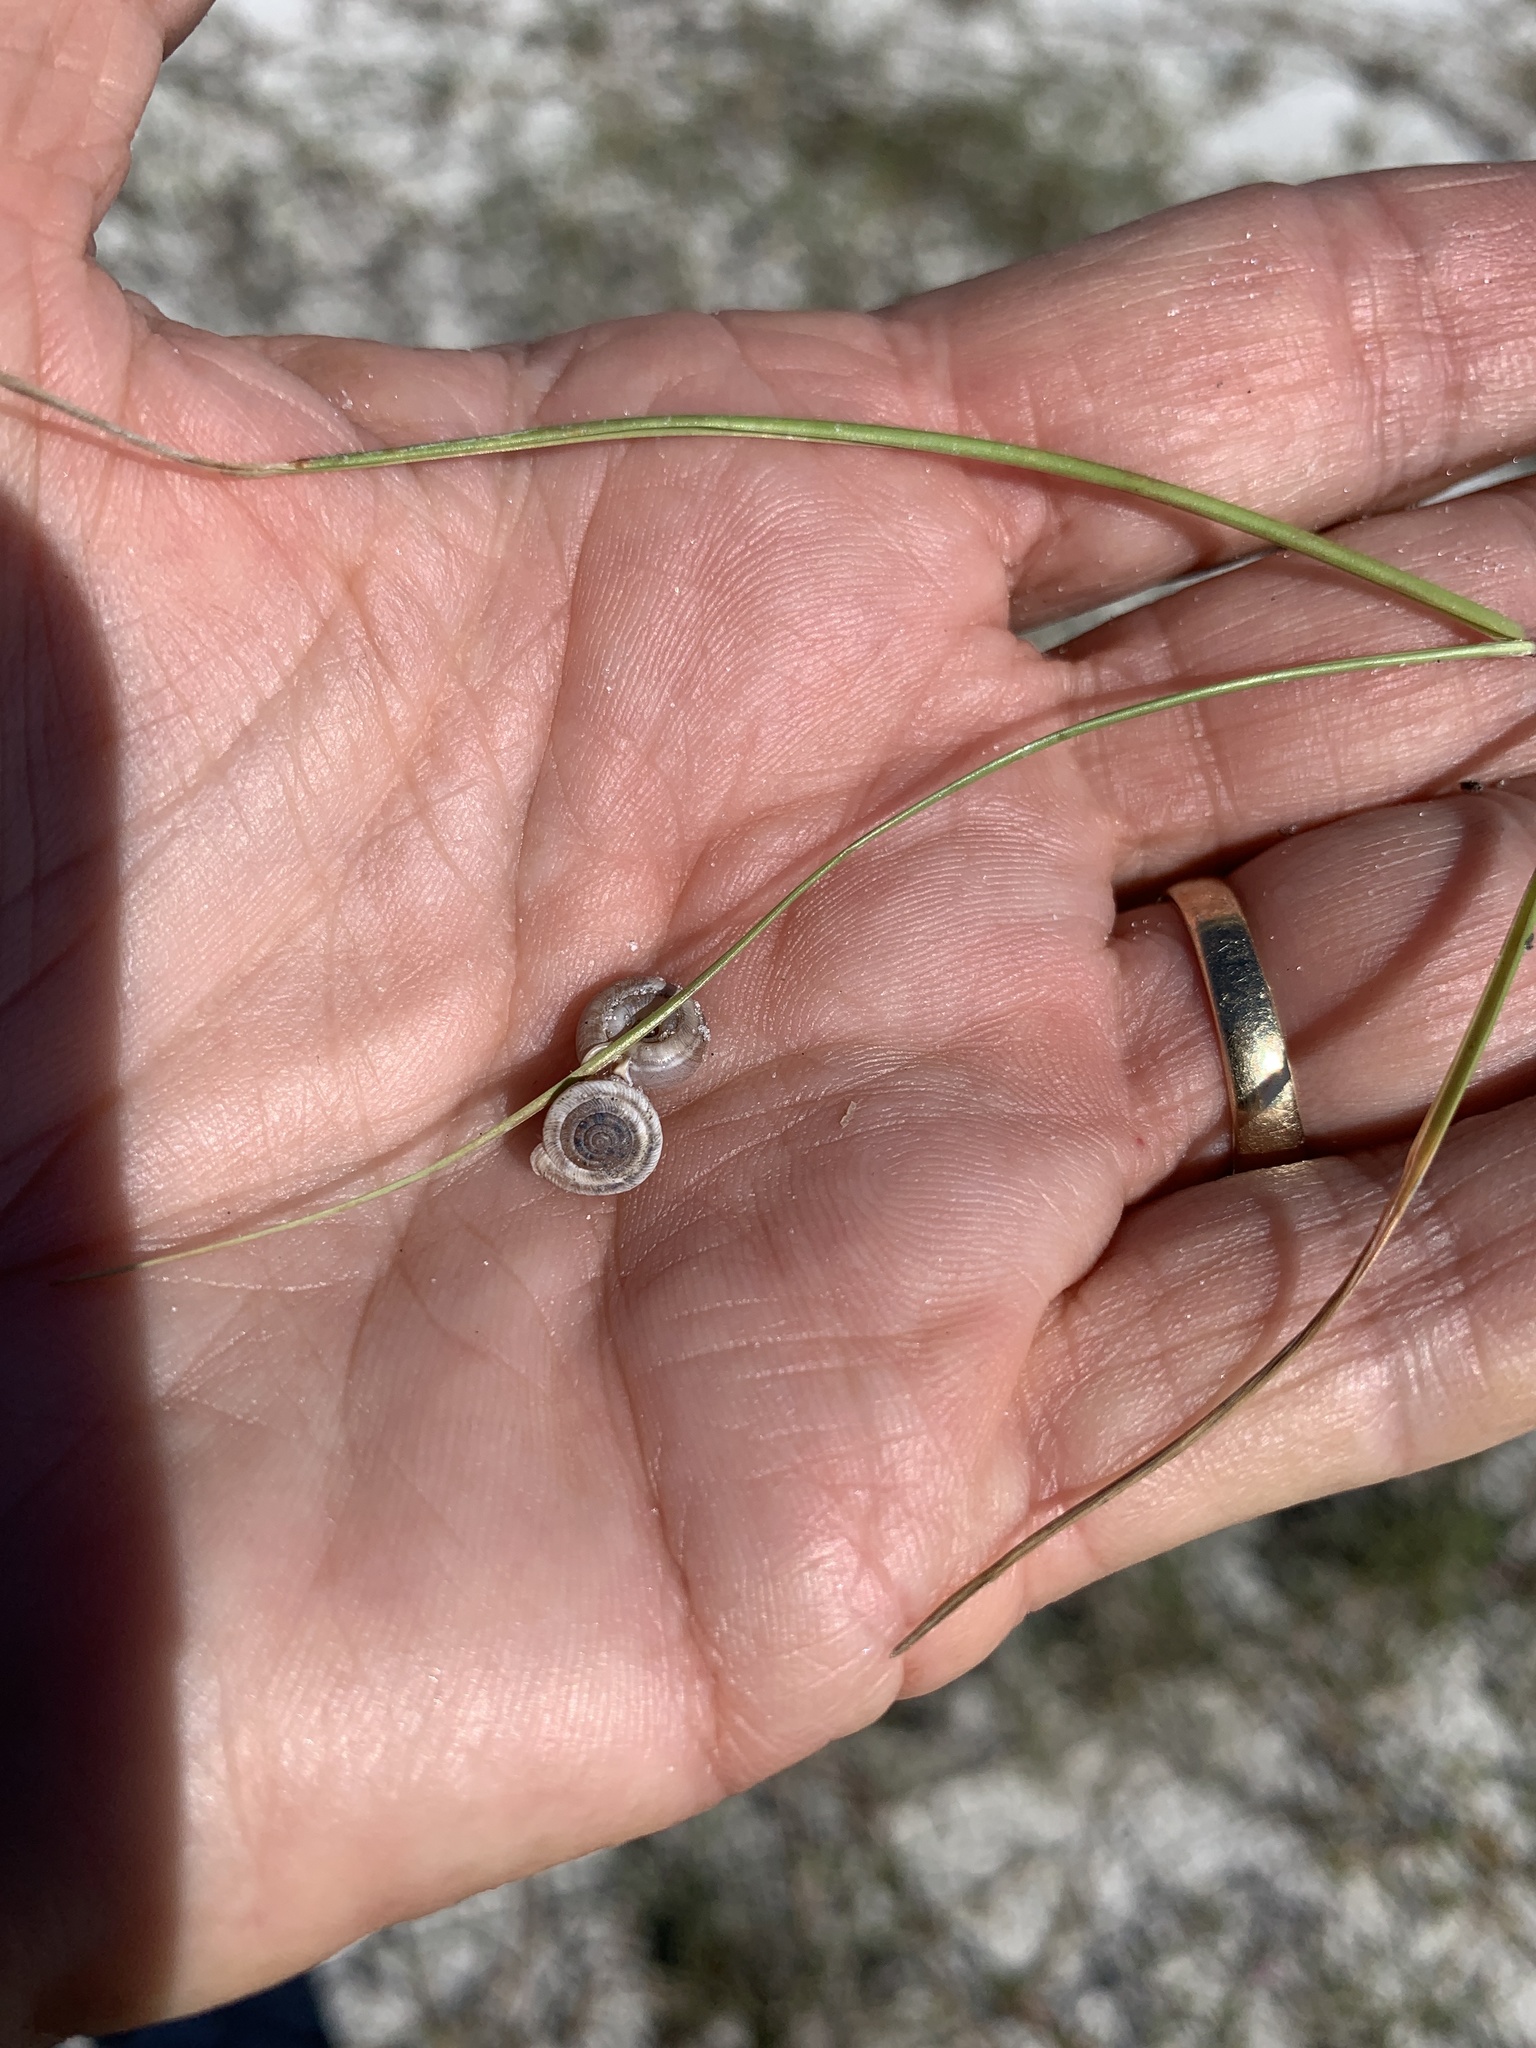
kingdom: Animalia
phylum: Mollusca
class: Gastropoda
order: Stylommatophora
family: Polygyridae
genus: Polygyra
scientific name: Polygyra cereolus
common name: Southern flatcone snail
